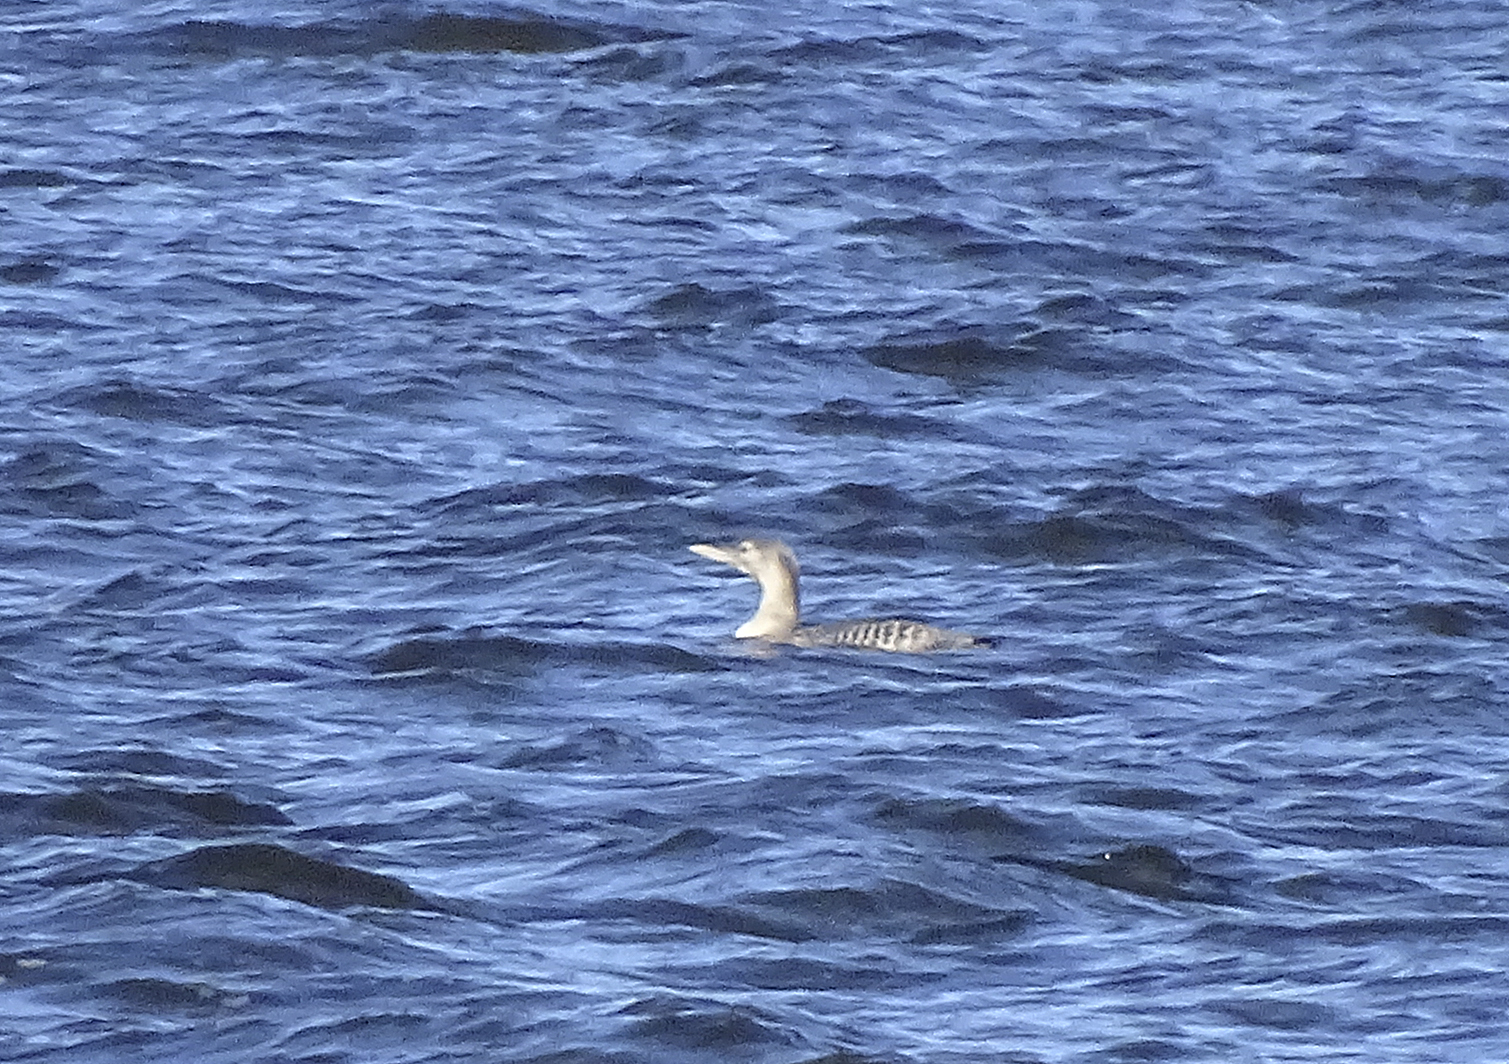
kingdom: Animalia
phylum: Chordata
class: Aves
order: Gaviiformes
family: Gaviidae
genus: Gavia
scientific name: Gavia adamsii
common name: Yellow-billed loon
